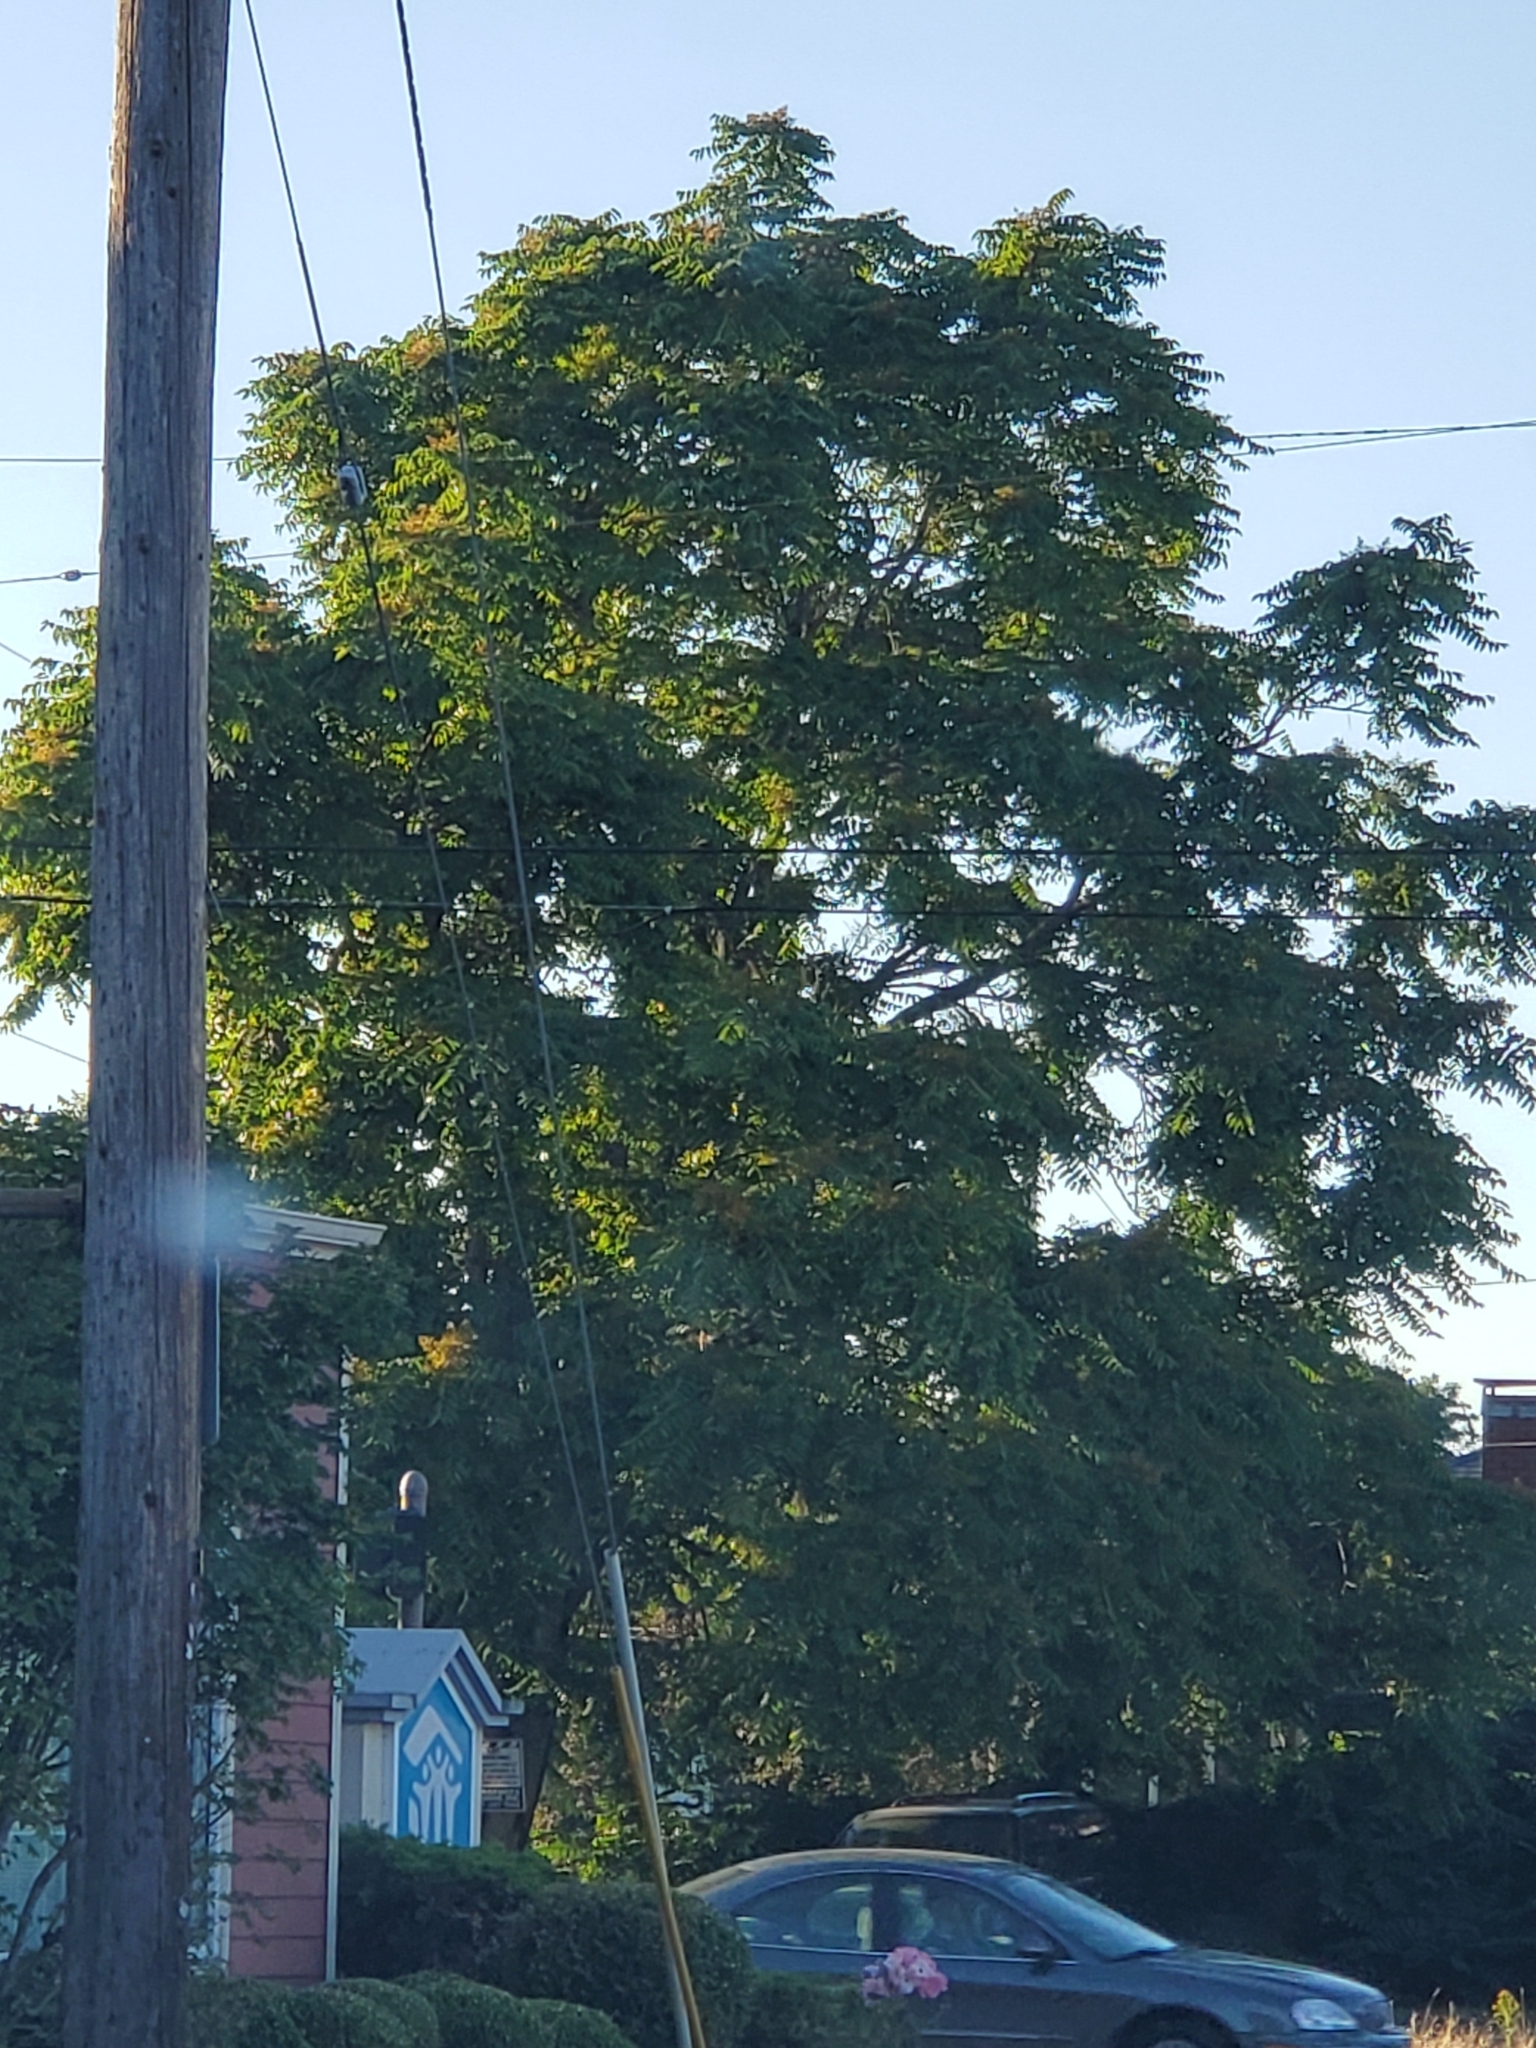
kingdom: Plantae
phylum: Tracheophyta
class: Magnoliopsida
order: Sapindales
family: Simaroubaceae
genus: Ailanthus
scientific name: Ailanthus altissima
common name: Tree-of-heaven
